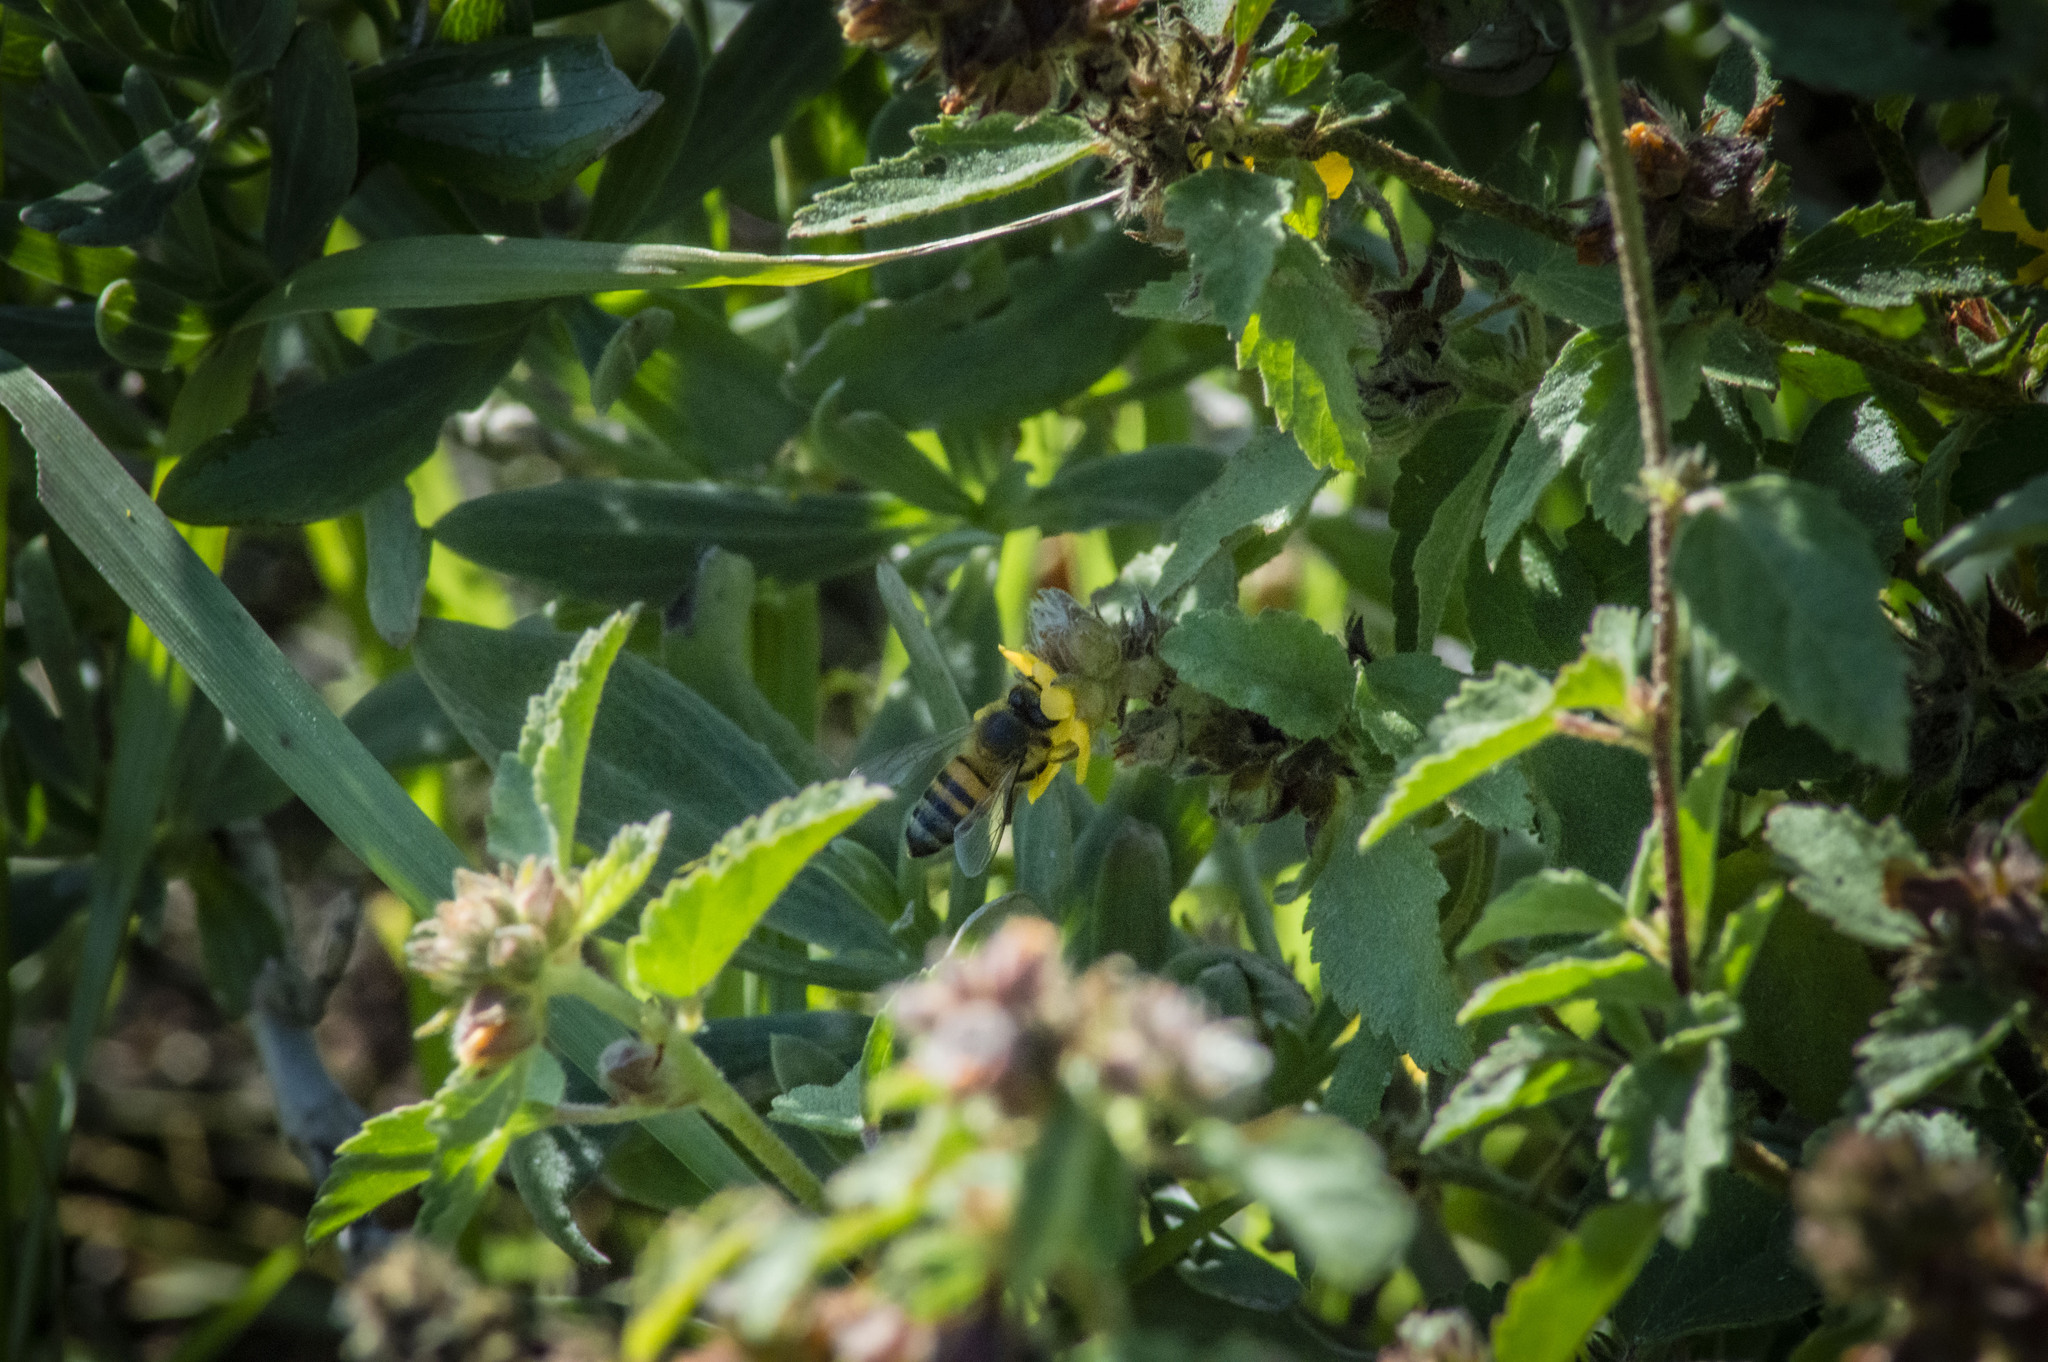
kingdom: Animalia
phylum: Arthropoda
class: Insecta
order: Hymenoptera
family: Apidae
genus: Apis
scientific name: Apis mellifera
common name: Honey bee
